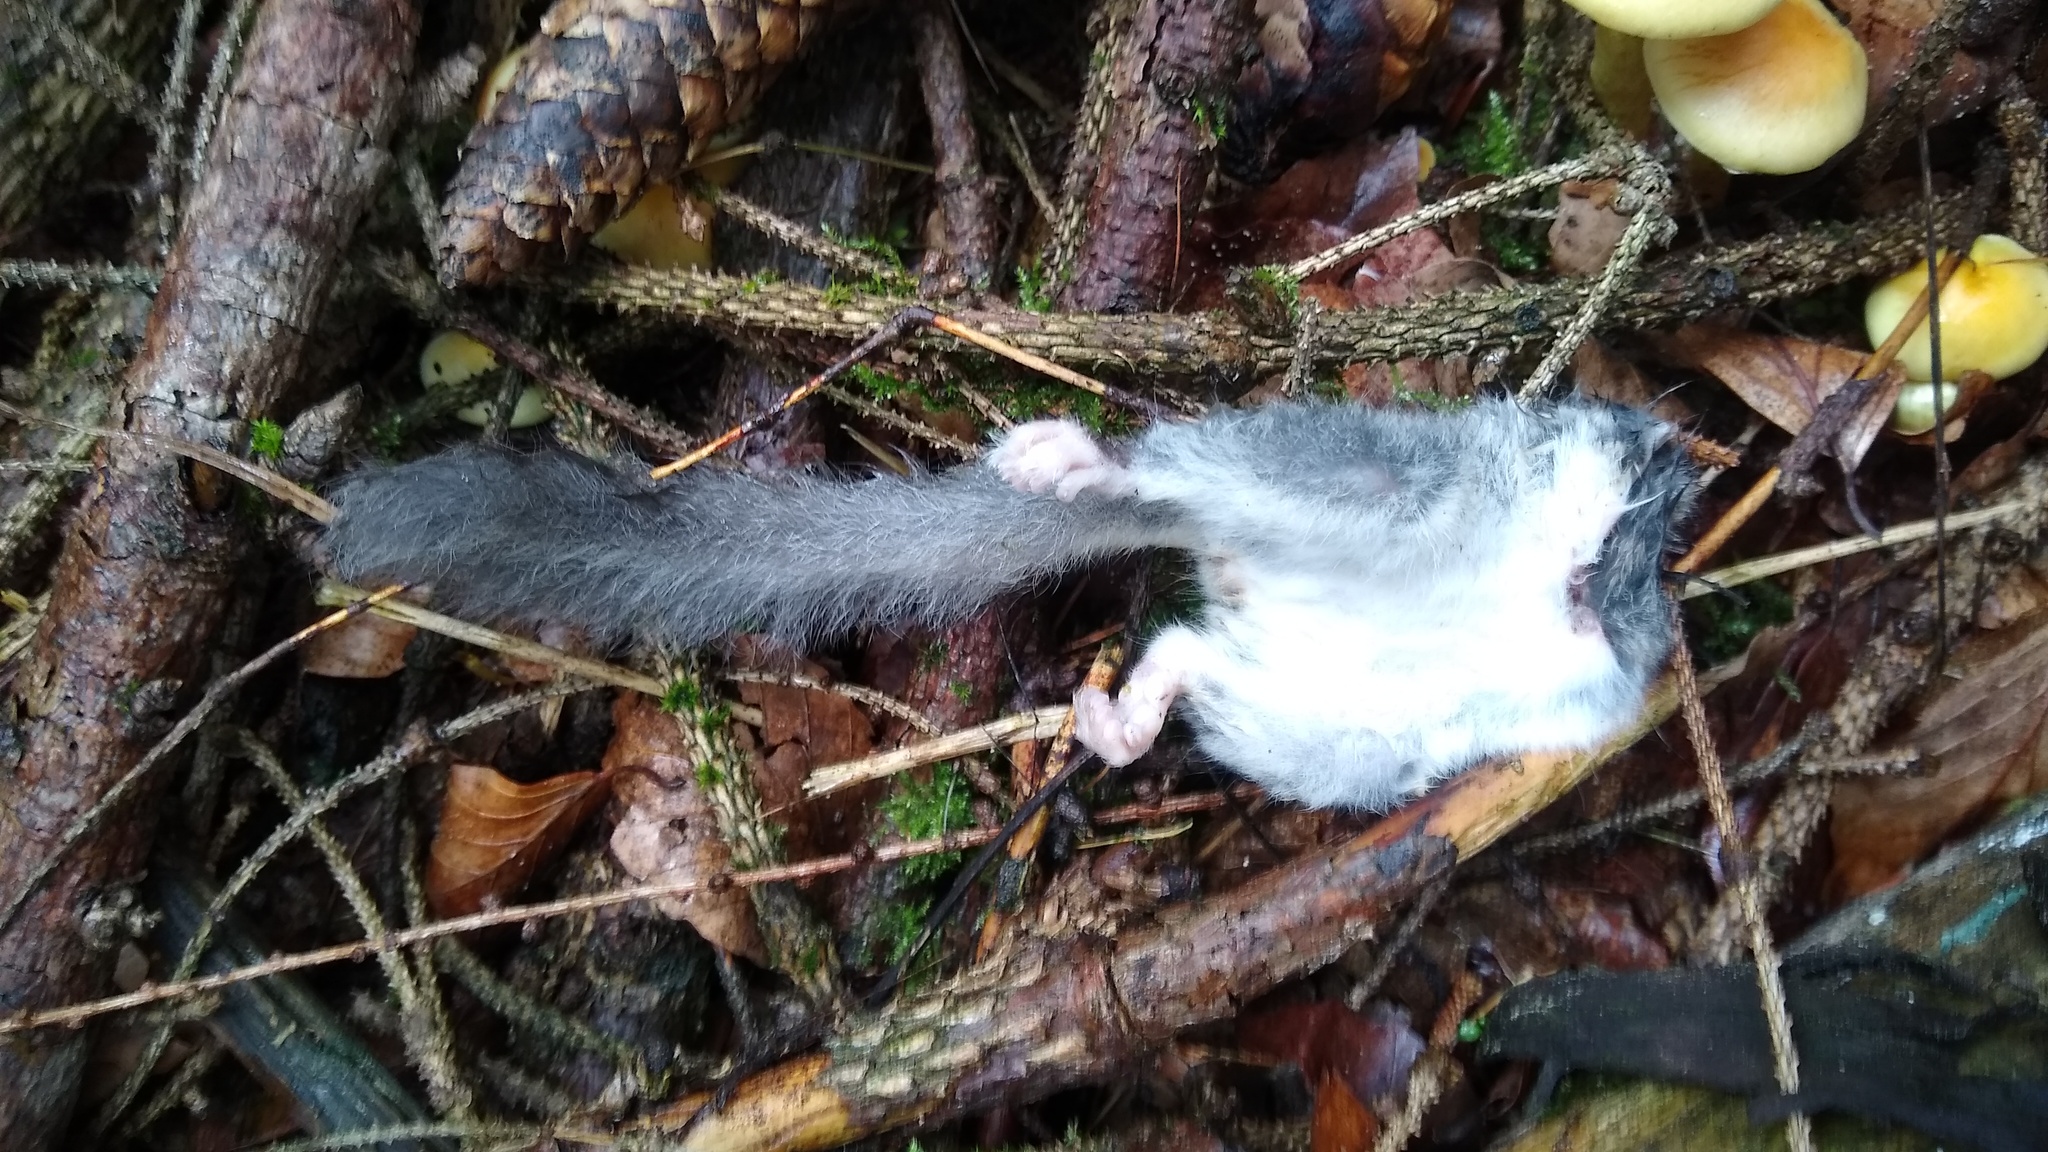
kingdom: Animalia
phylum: Chordata
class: Mammalia
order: Rodentia
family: Gliridae
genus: Glis
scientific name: Glis glis
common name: Fat dormouse
